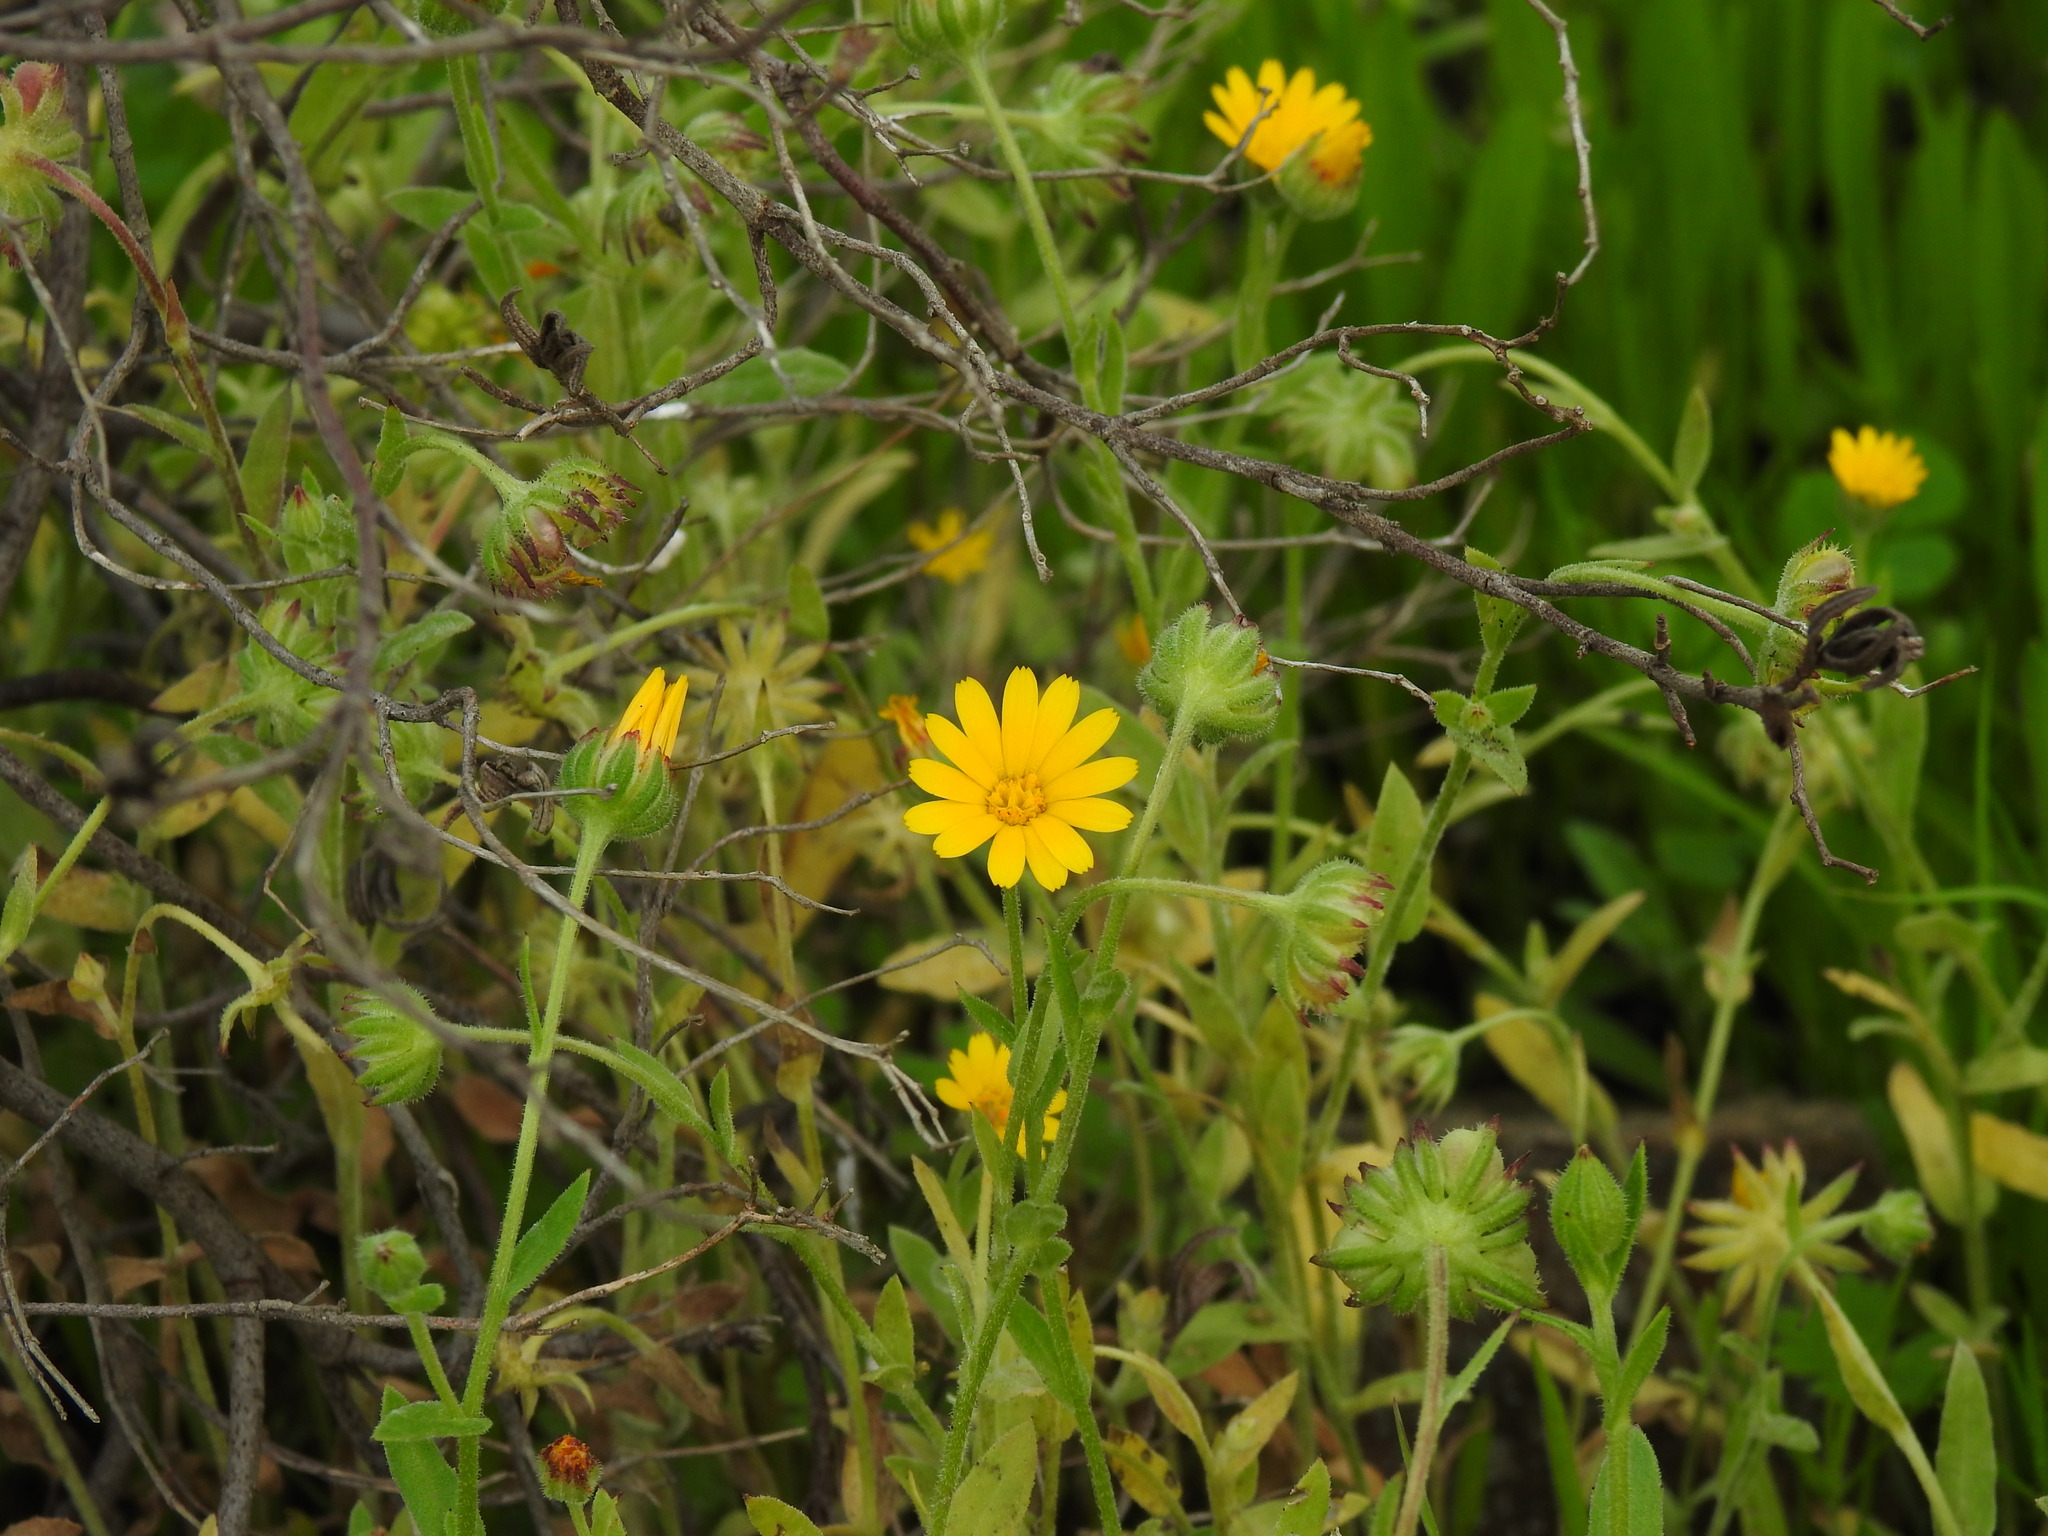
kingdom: Plantae
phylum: Tracheophyta
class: Magnoliopsida
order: Asterales
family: Asteraceae
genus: Calendula
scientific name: Calendula arvensis
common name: Field marigold
